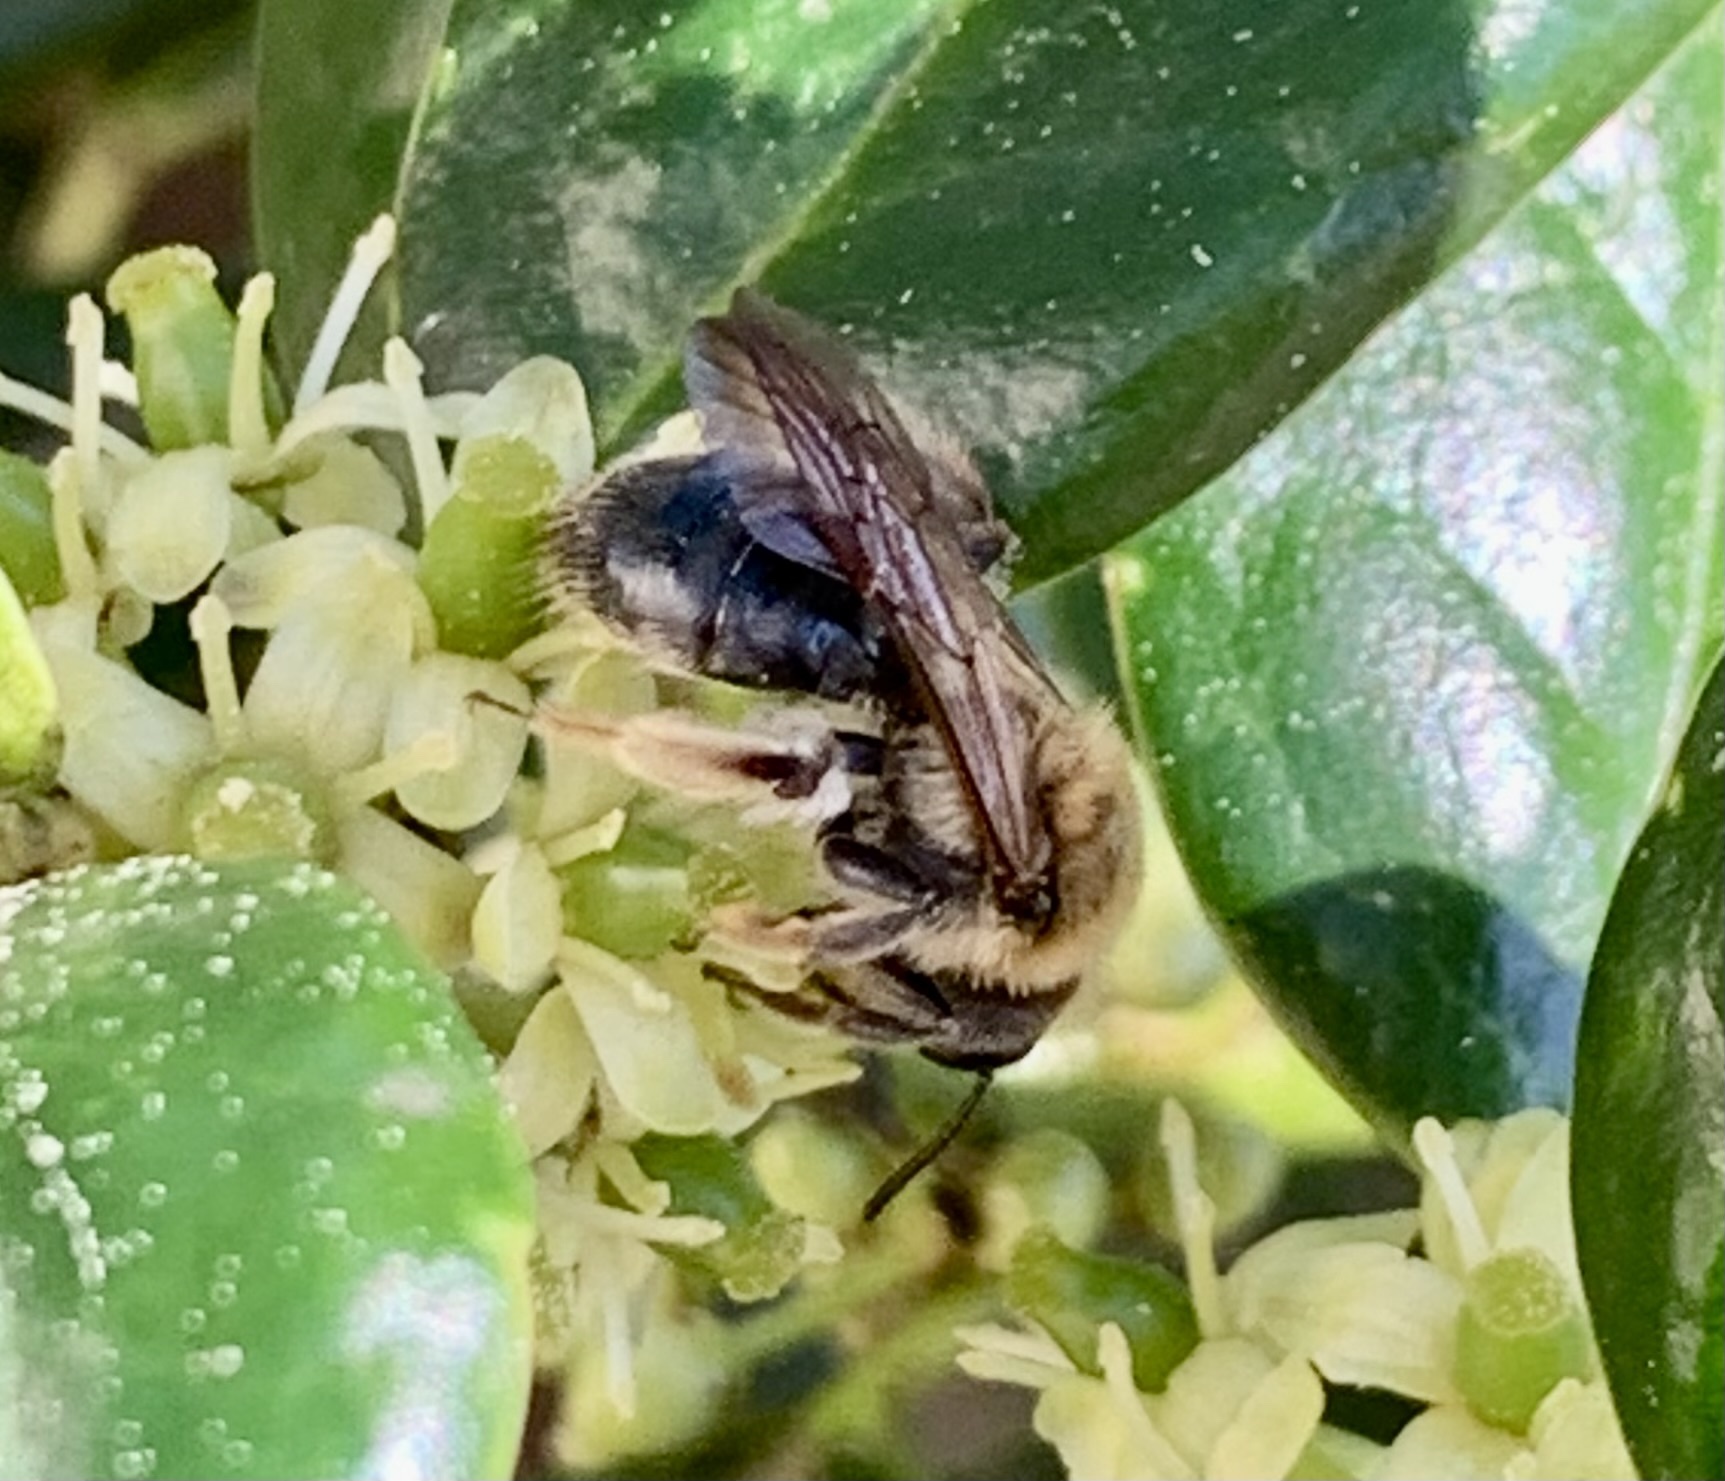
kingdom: Animalia
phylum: Arthropoda
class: Insecta
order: Hymenoptera
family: Andrenidae
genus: Andrena
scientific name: Andrena barbara
